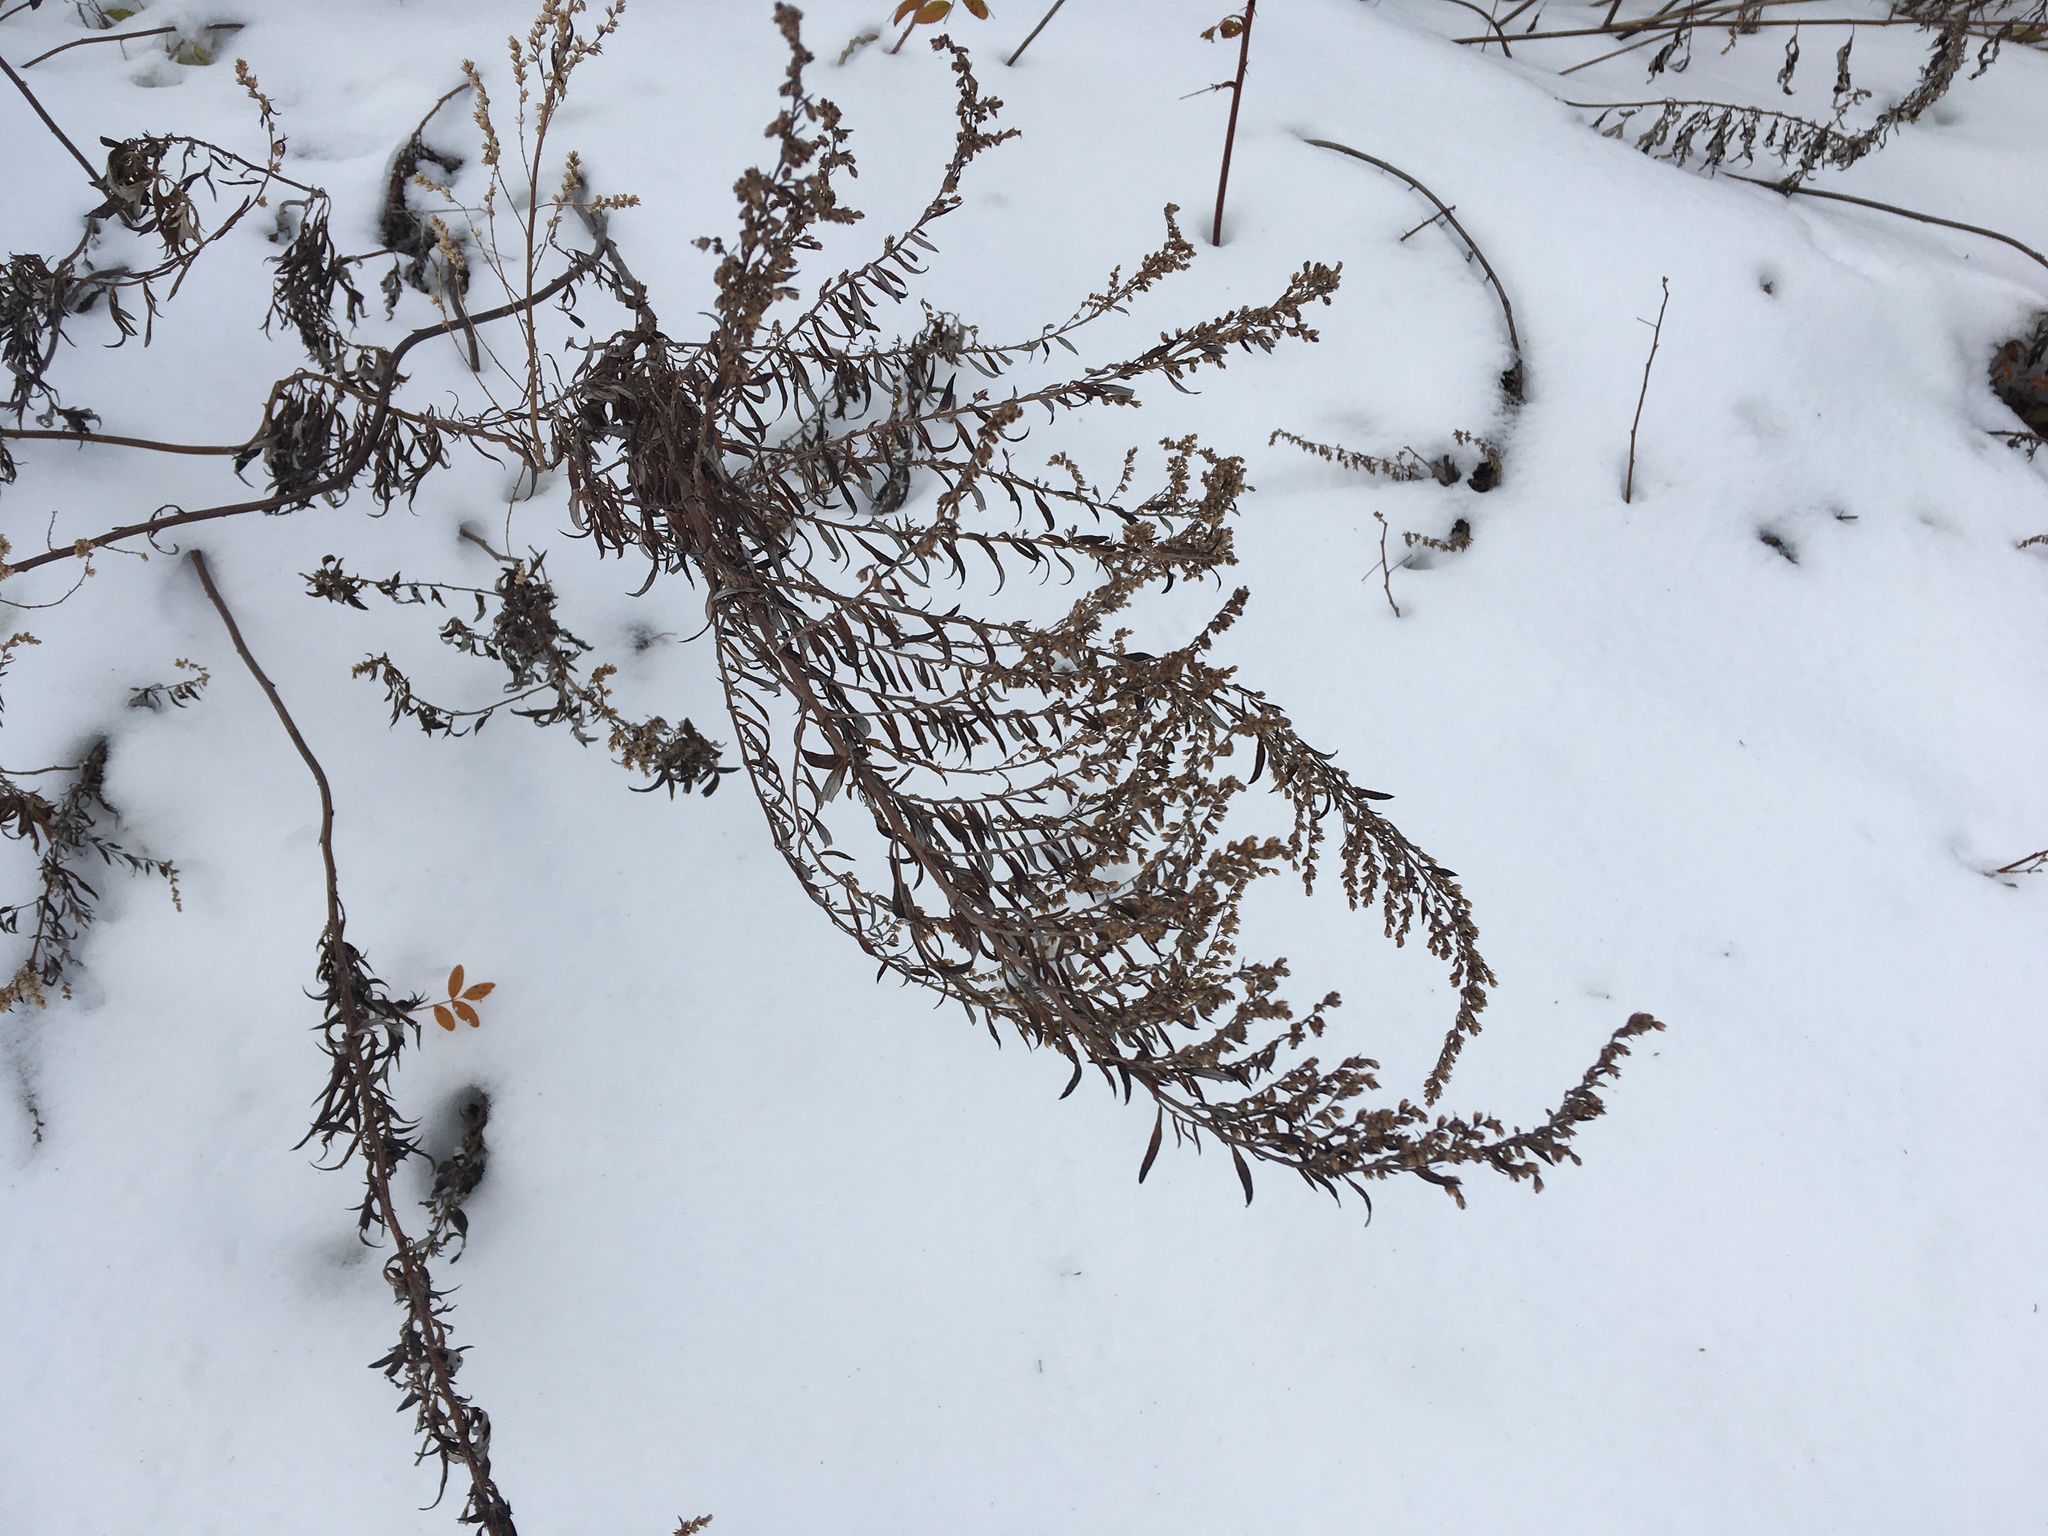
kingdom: Plantae
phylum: Tracheophyta
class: Magnoliopsida
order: Asterales
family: Asteraceae
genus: Artemisia
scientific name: Artemisia vulgaris
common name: Mugwort
